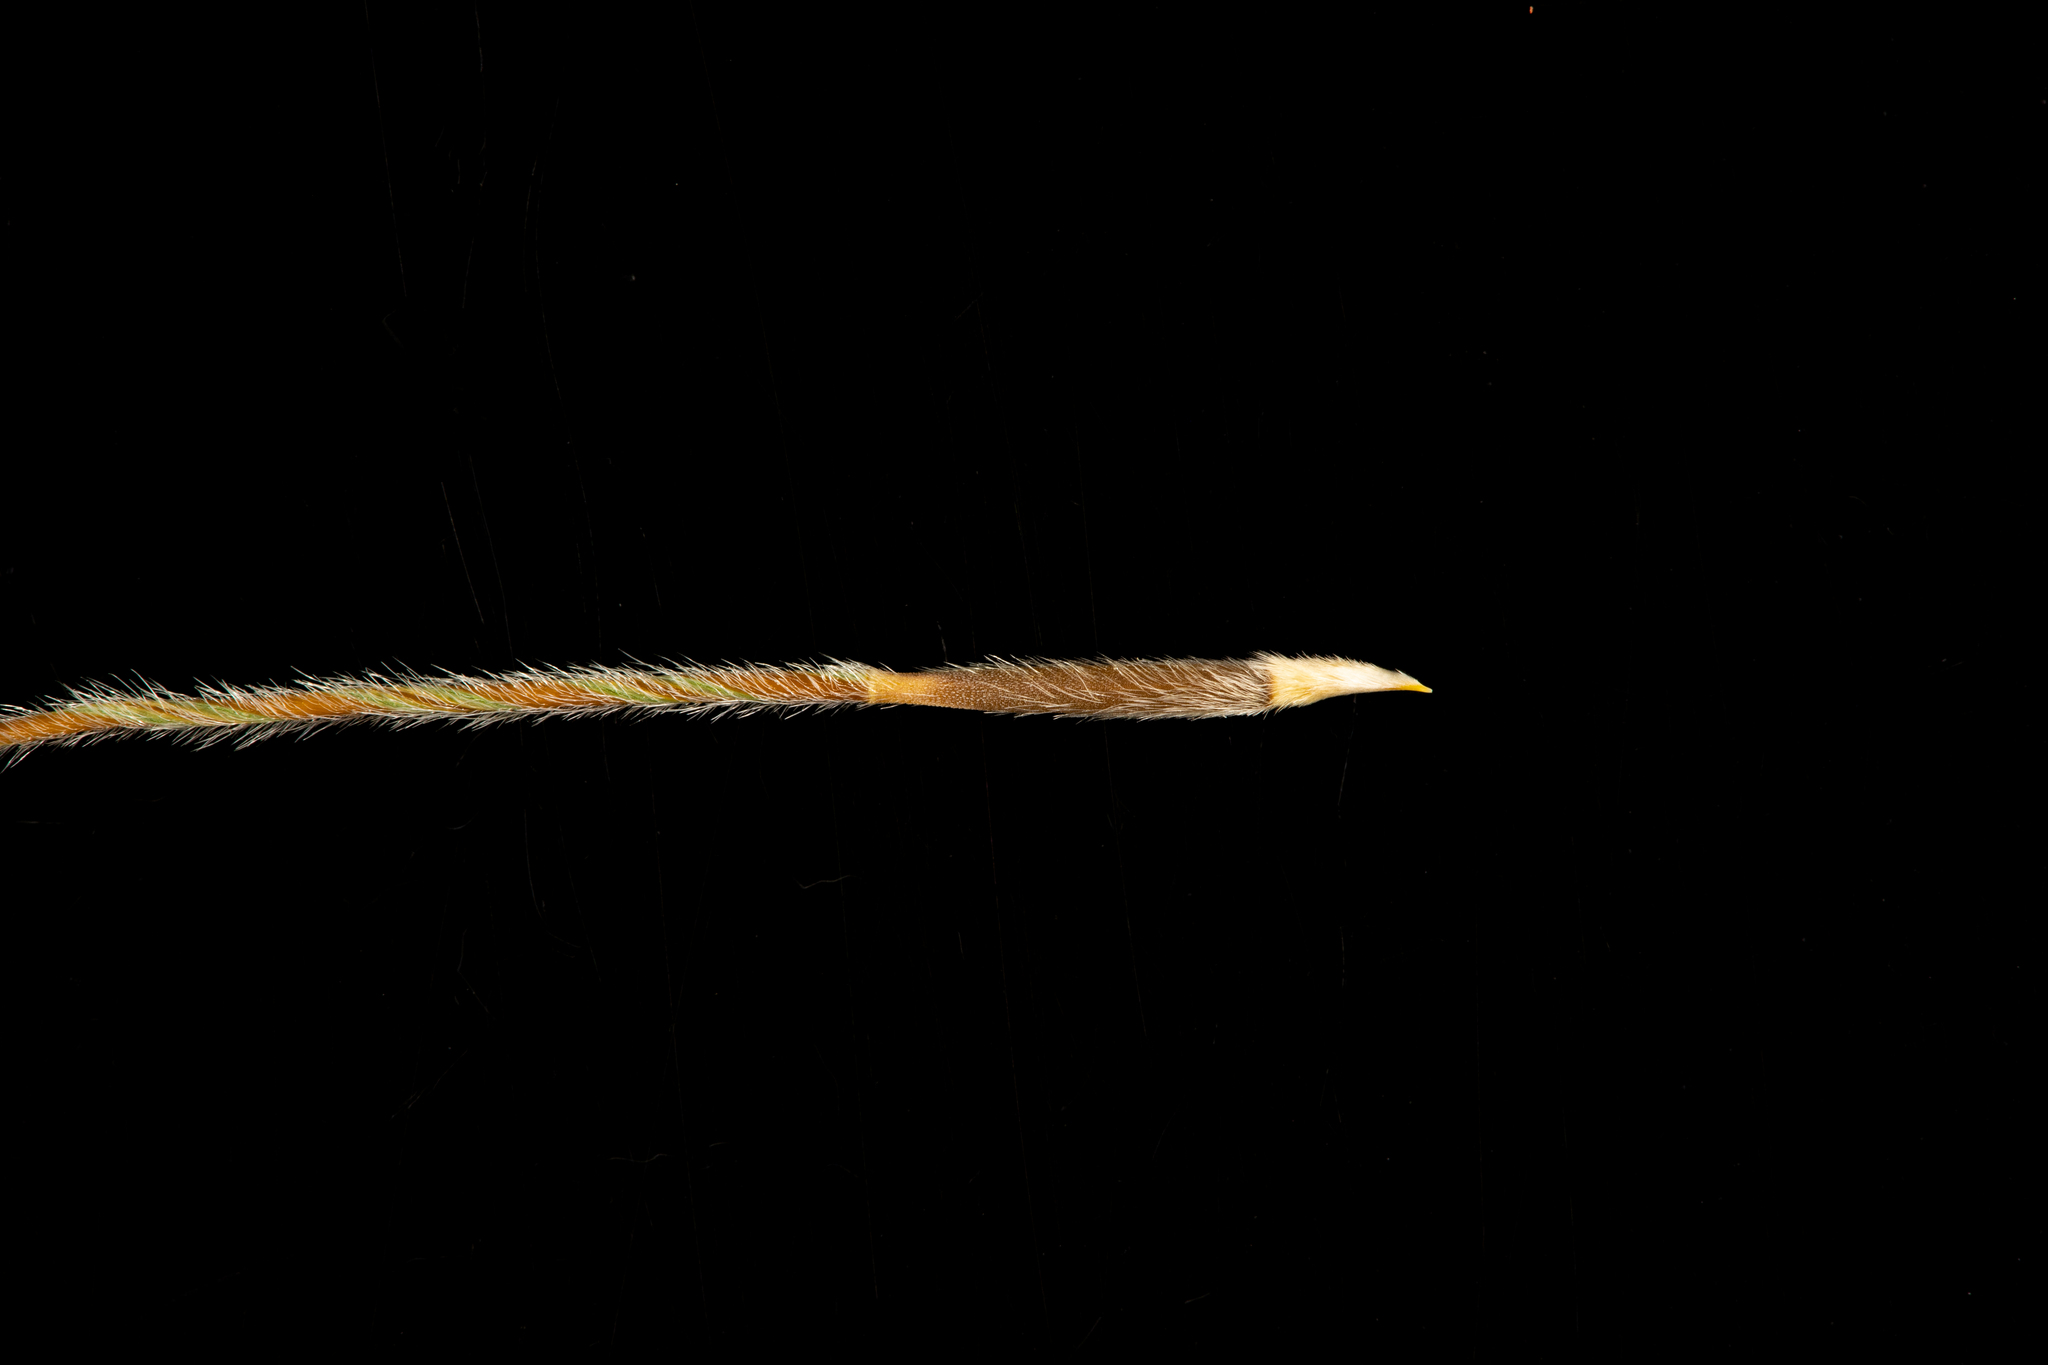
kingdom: Plantae
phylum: Tracheophyta
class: Liliopsida
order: Poales
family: Poaceae
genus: Austrostipa
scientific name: Austrostipa campylachne
